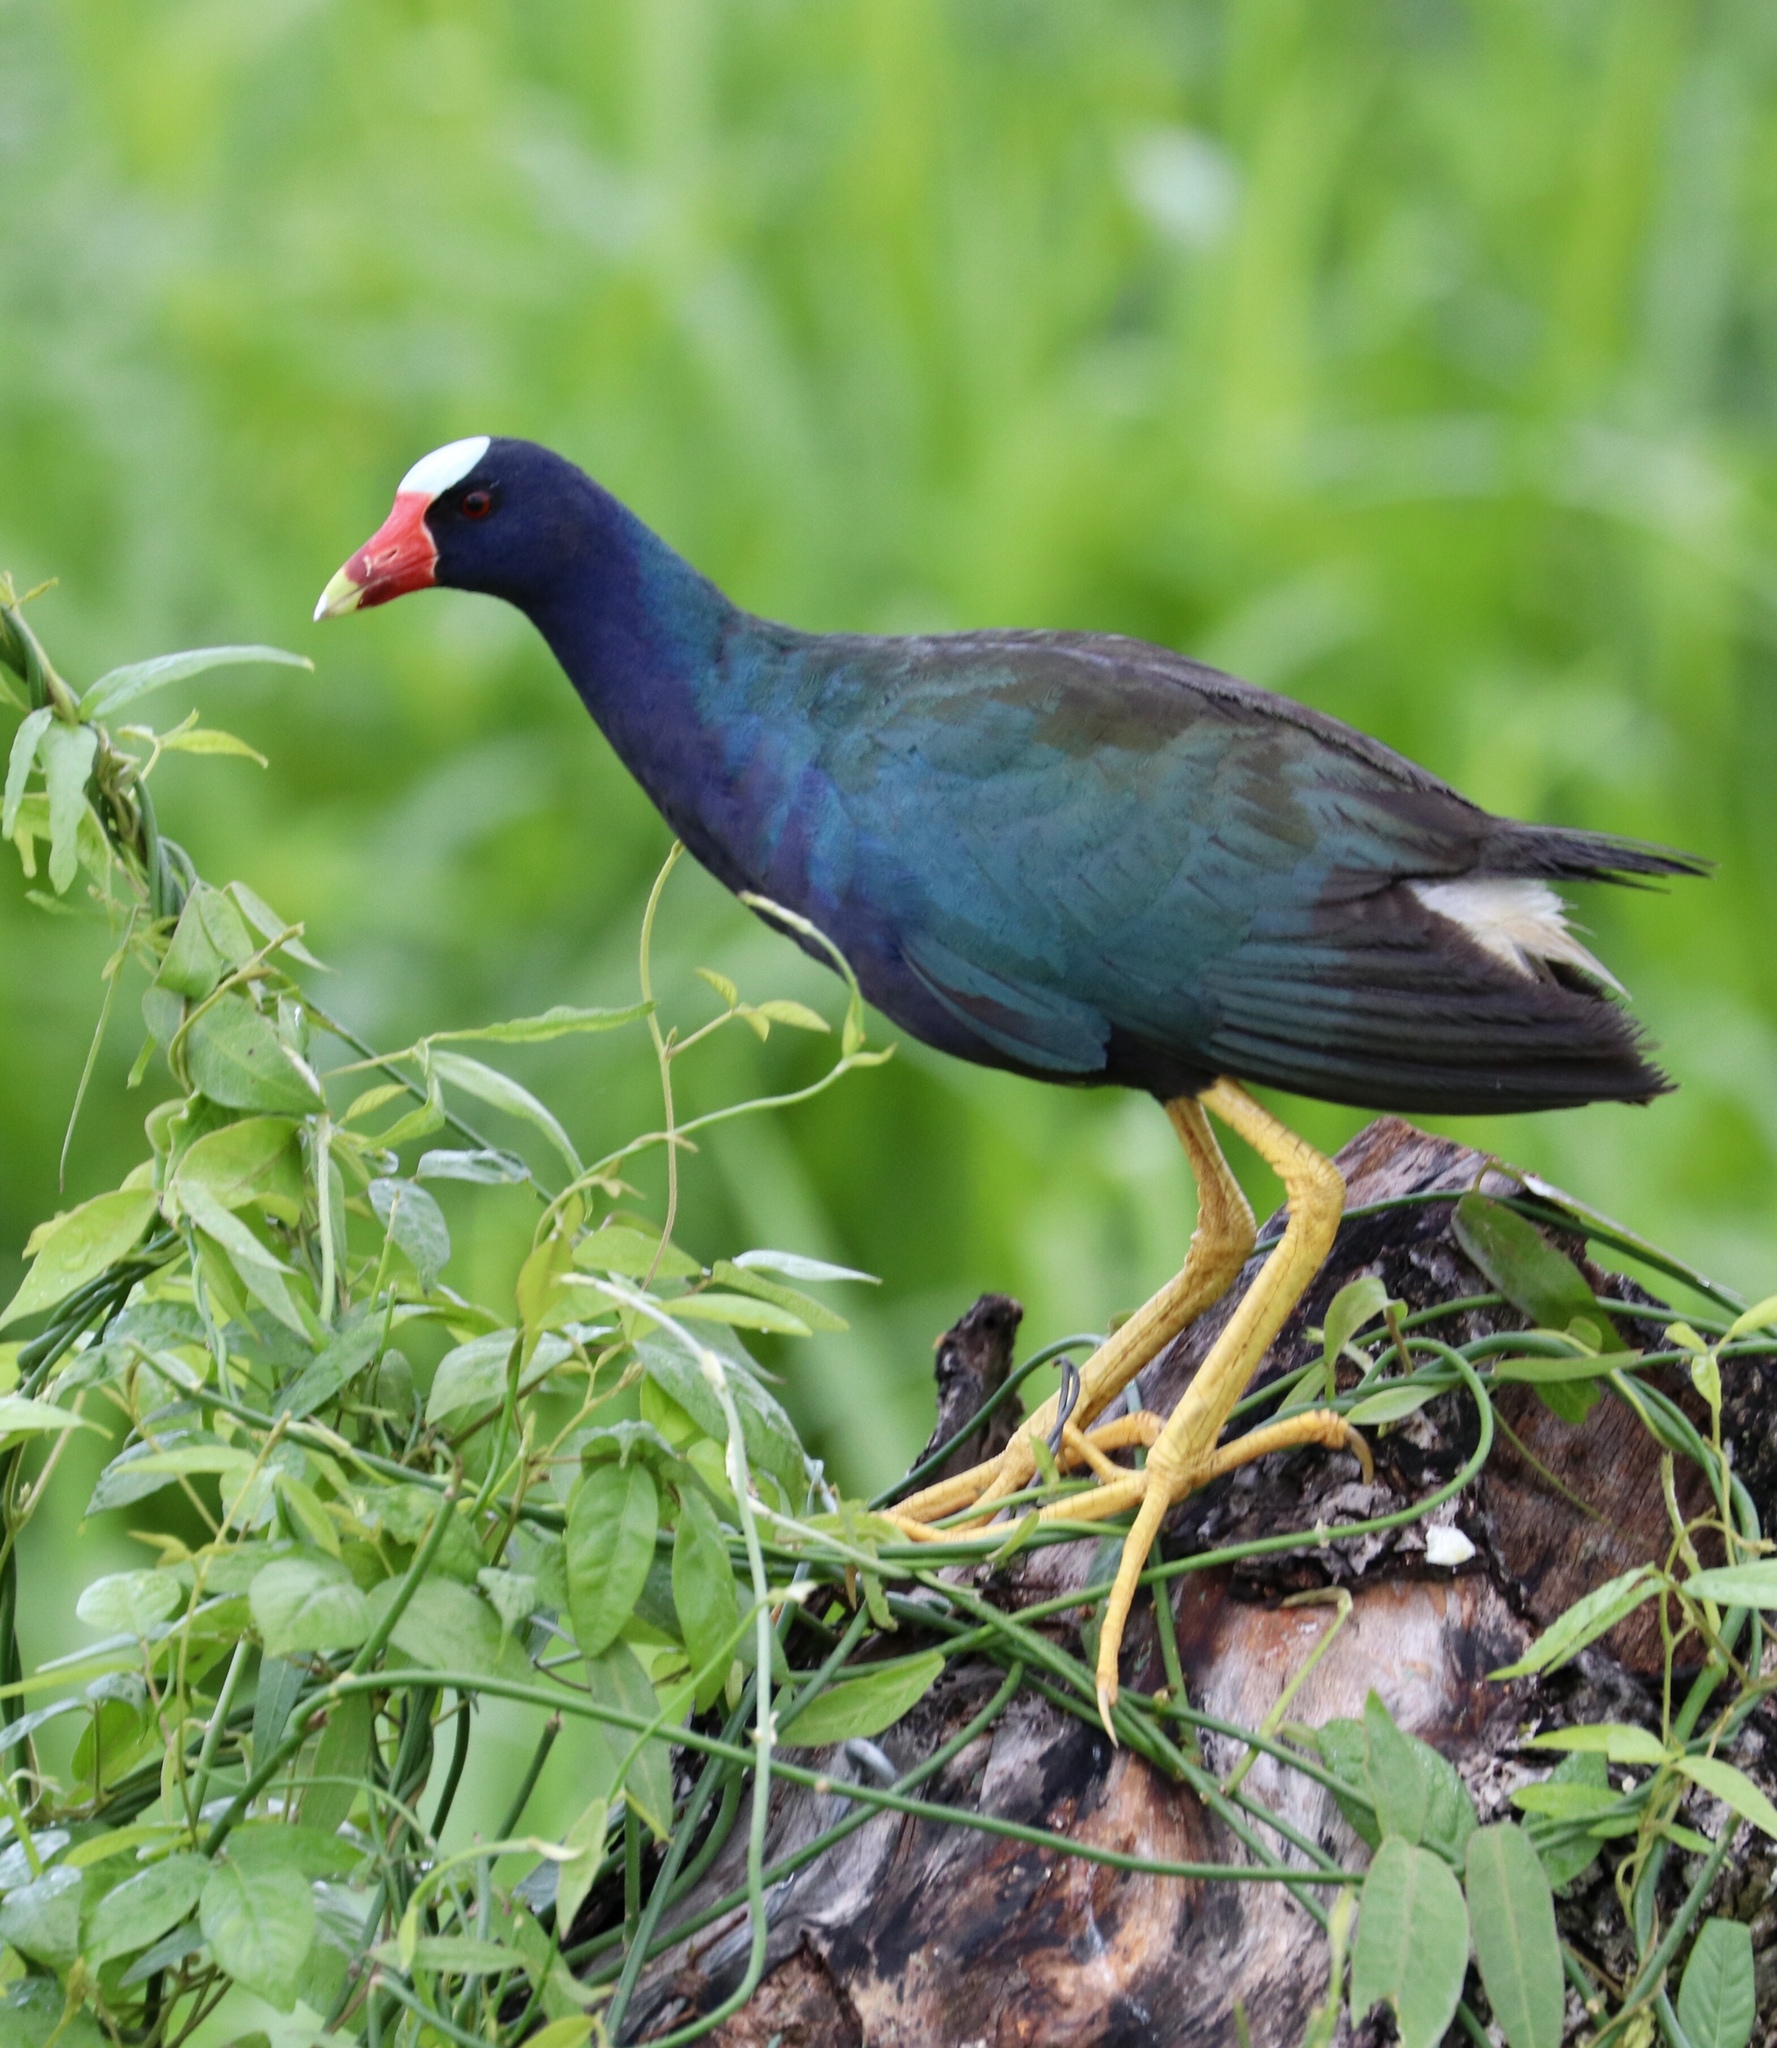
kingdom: Animalia
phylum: Chordata
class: Aves
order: Gruiformes
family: Rallidae
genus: Porphyrio
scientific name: Porphyrio martinica
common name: Purple gallinule
